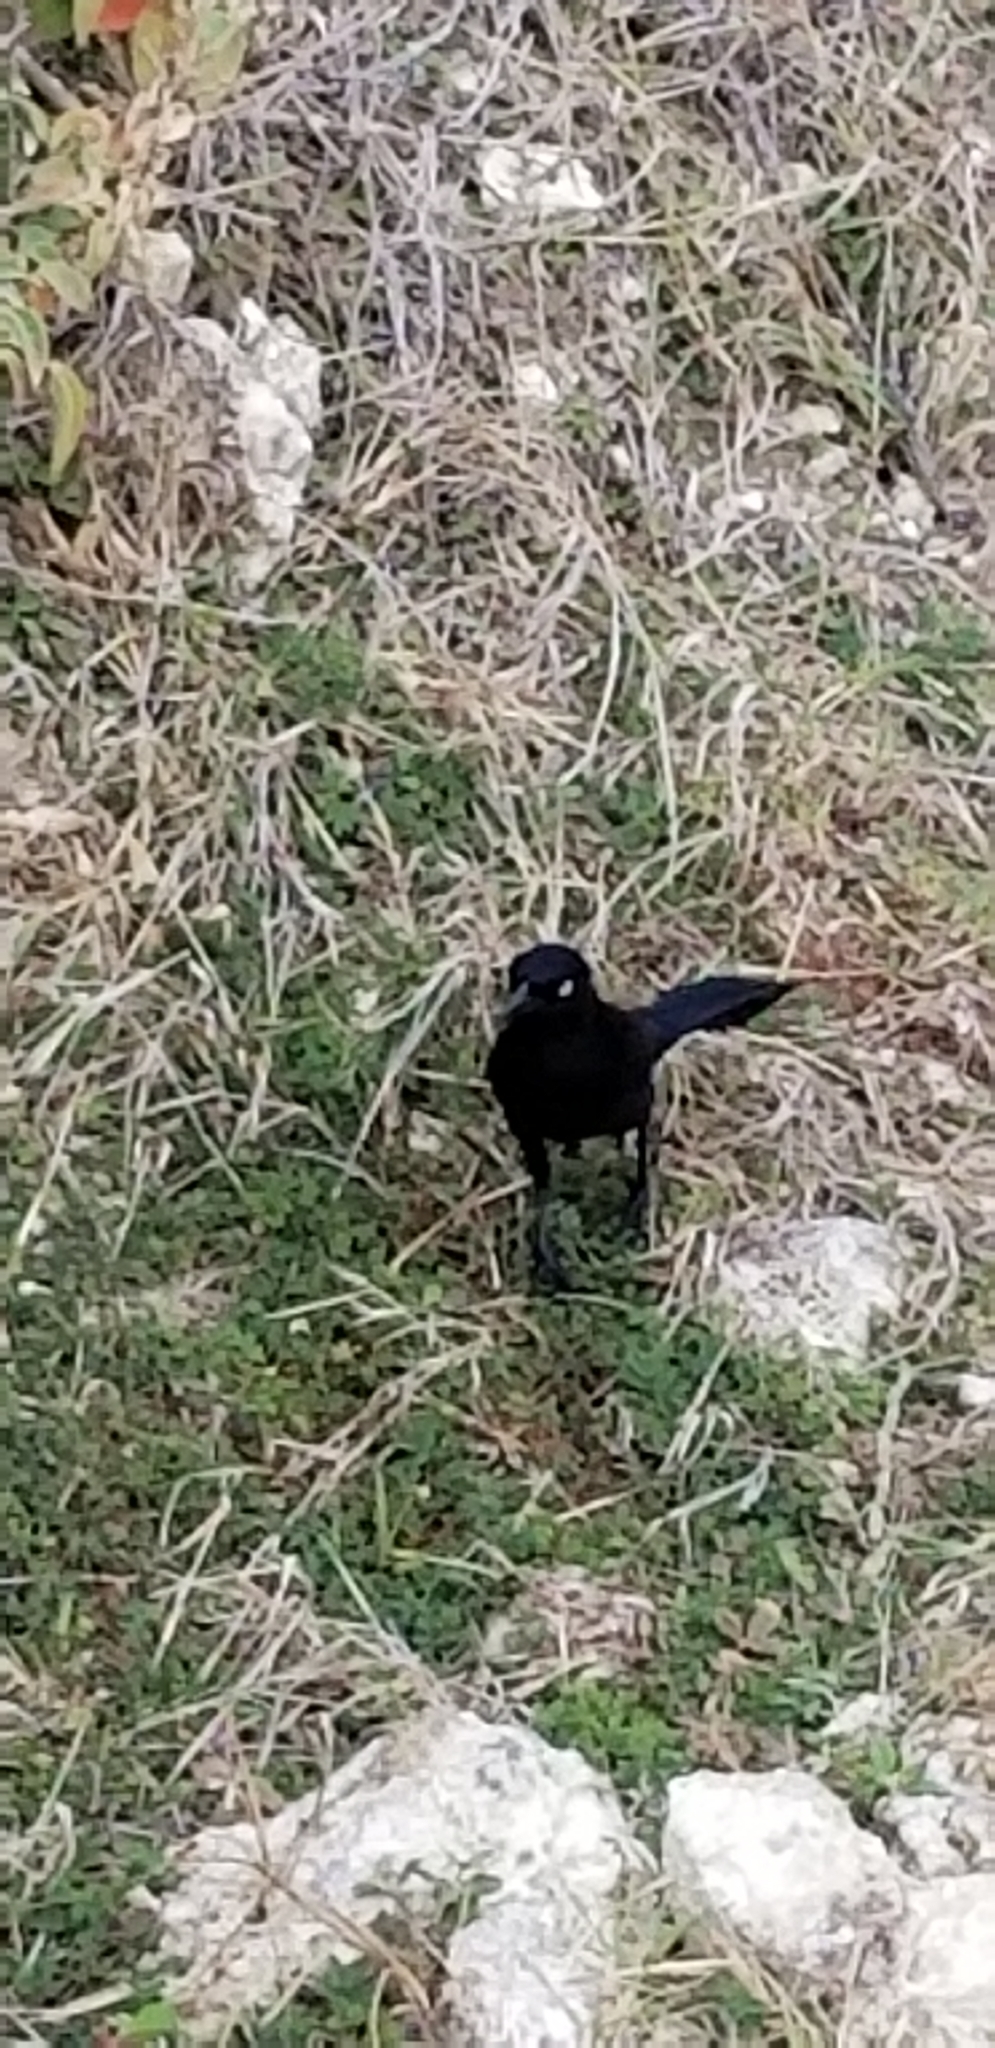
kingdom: Animalia
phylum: Chordata
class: Aves
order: Passeriformes
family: Icteridae
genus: Quiscalus
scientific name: Quiscalus lugubris
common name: Carib grackle
